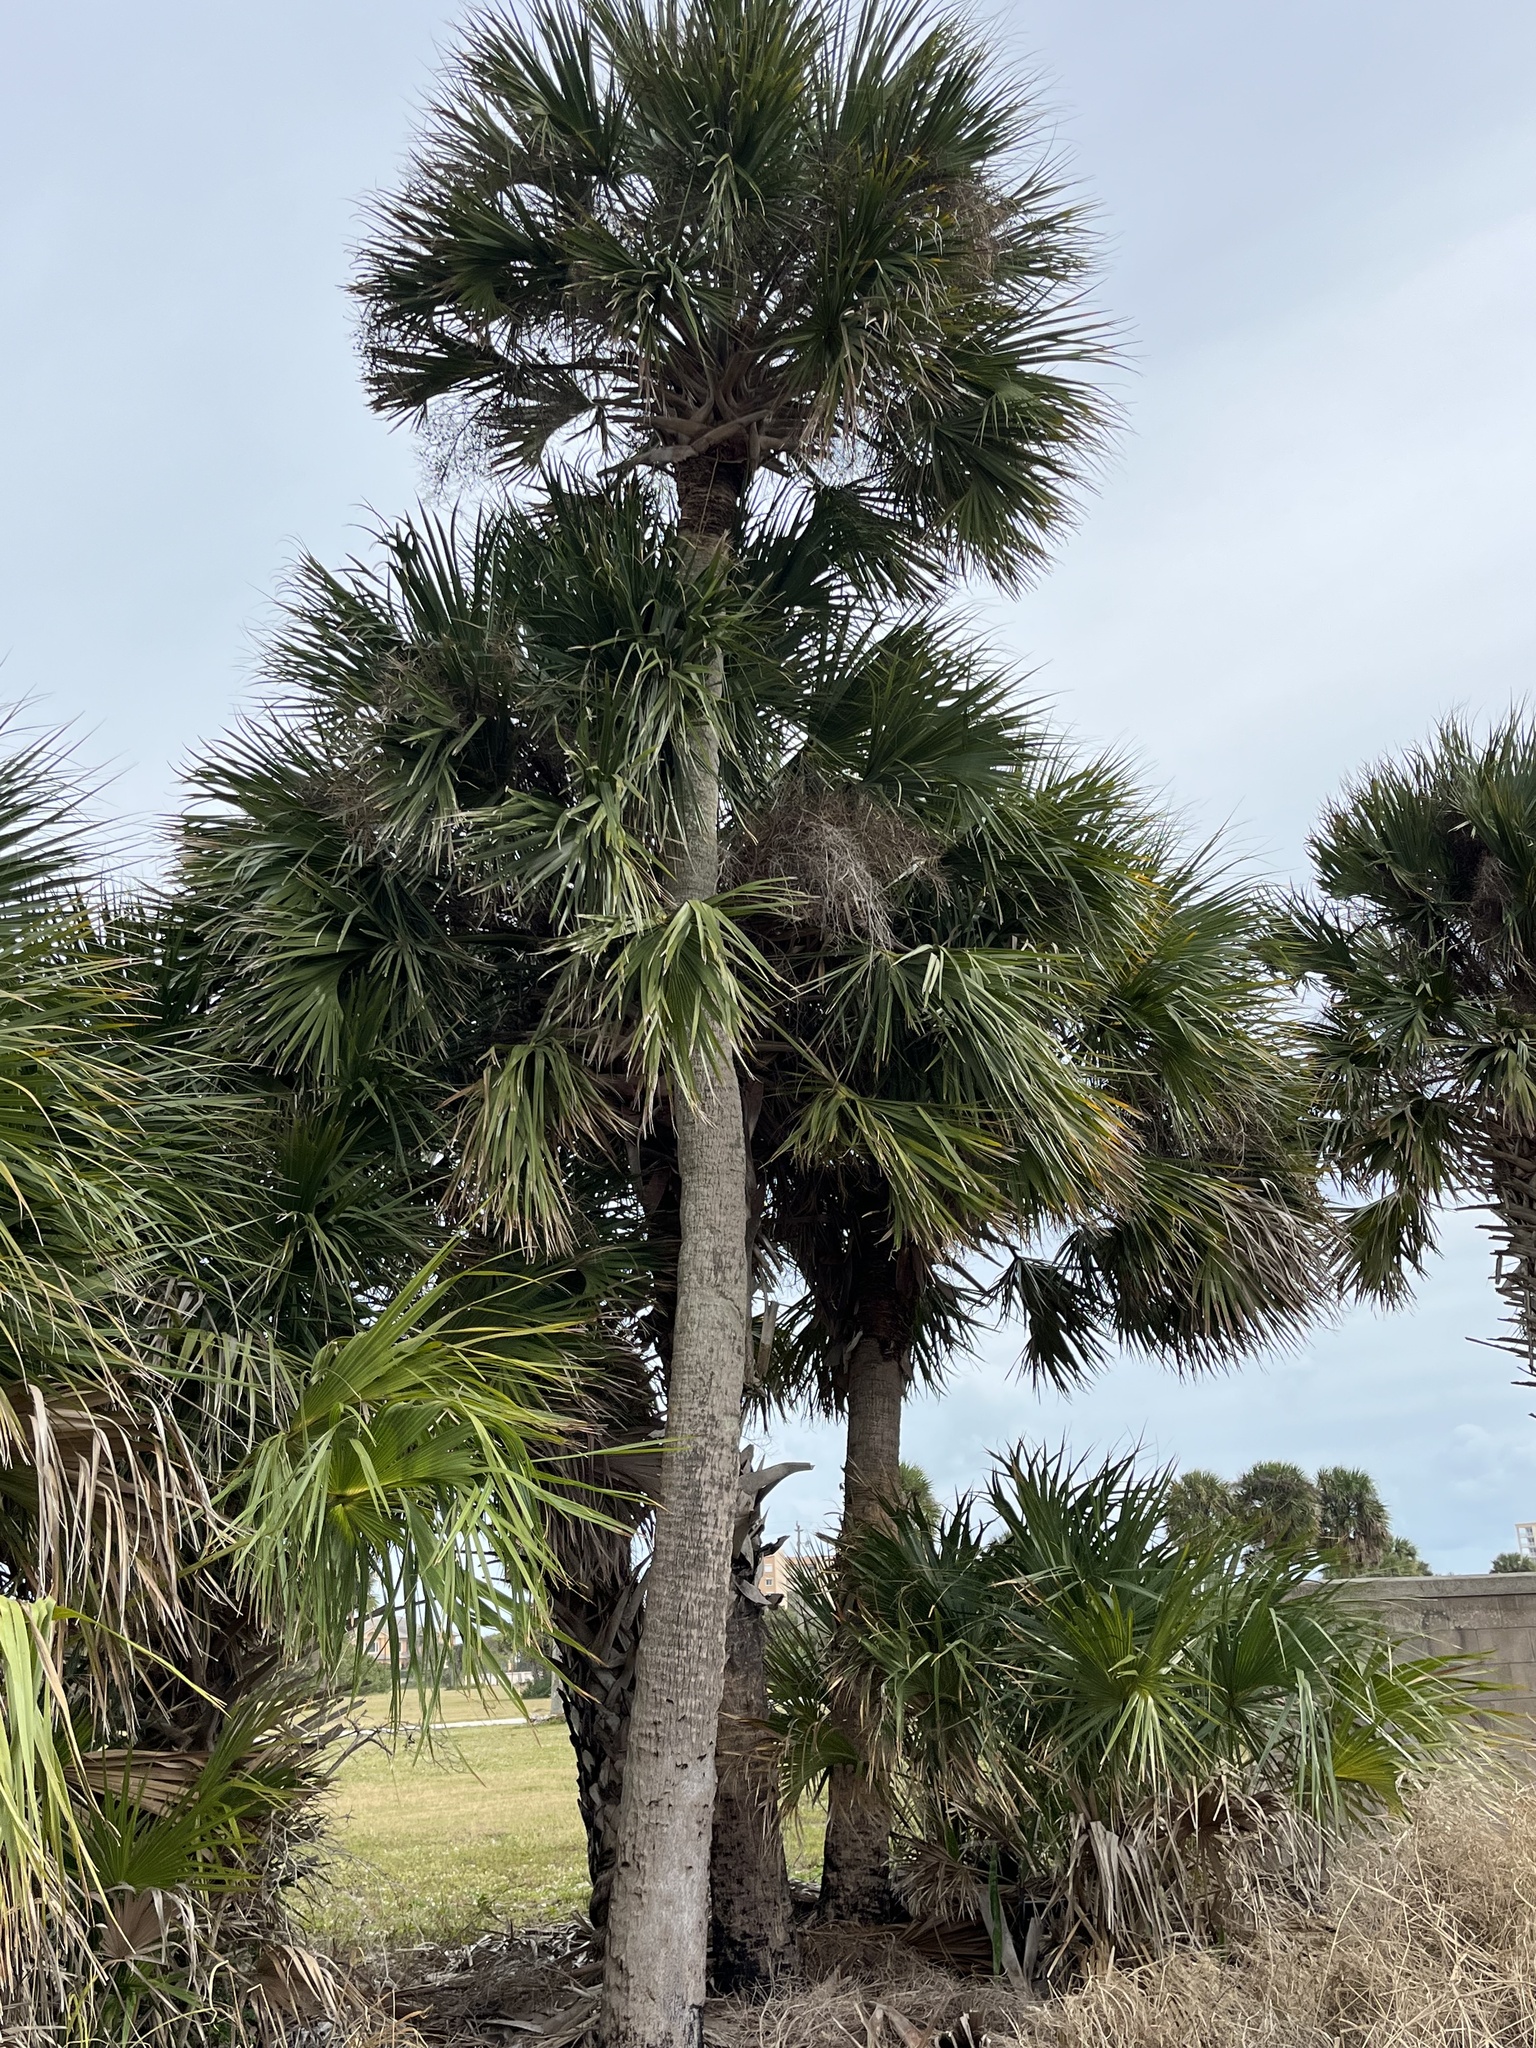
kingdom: Plantae
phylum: Tracheophyta
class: Liliopsida
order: Arecales
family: Arecaceae
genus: Sabal
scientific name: Sabal palmetto
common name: Blue palmetto
